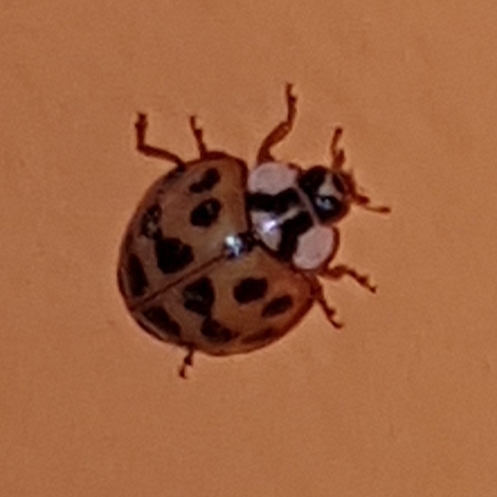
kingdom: Animalia
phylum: Arthropoda
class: Insecta
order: Coleoptera
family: Coccinellidae
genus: Harmonia
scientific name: Harmonia axyridis
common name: Harlequin ladybird
